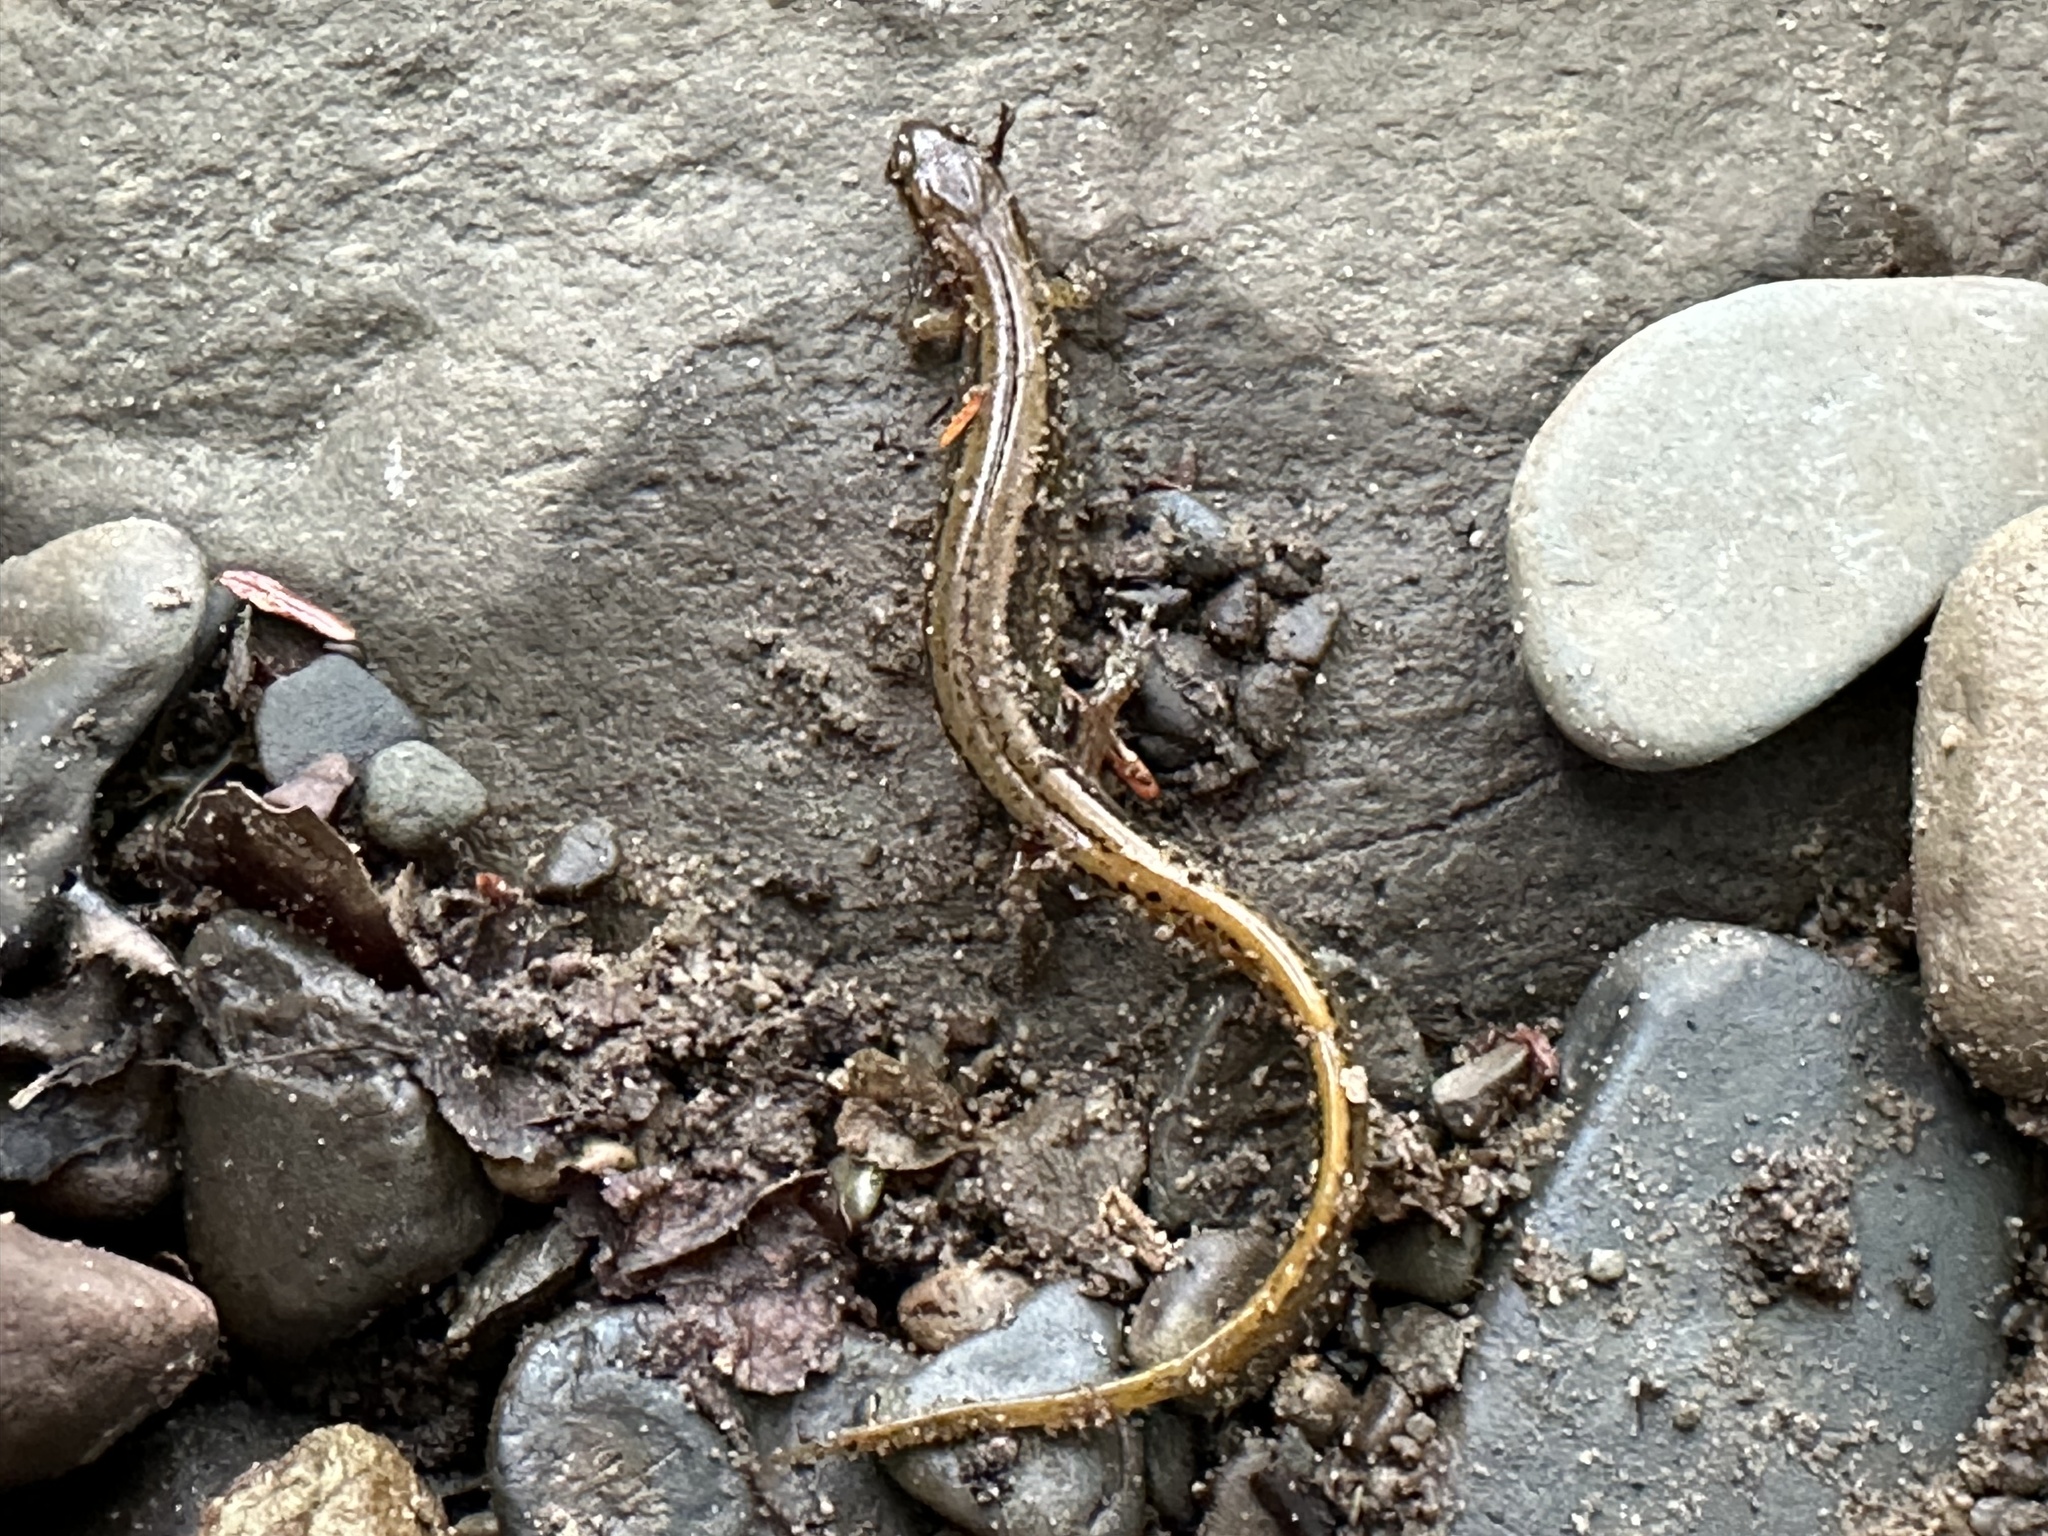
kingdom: Animalia
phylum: Chordata
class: Amphibia
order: Caudata
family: Plethodontidae
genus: Eurycea
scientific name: Eurycea bislineata
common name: Northern two-lined salamander
